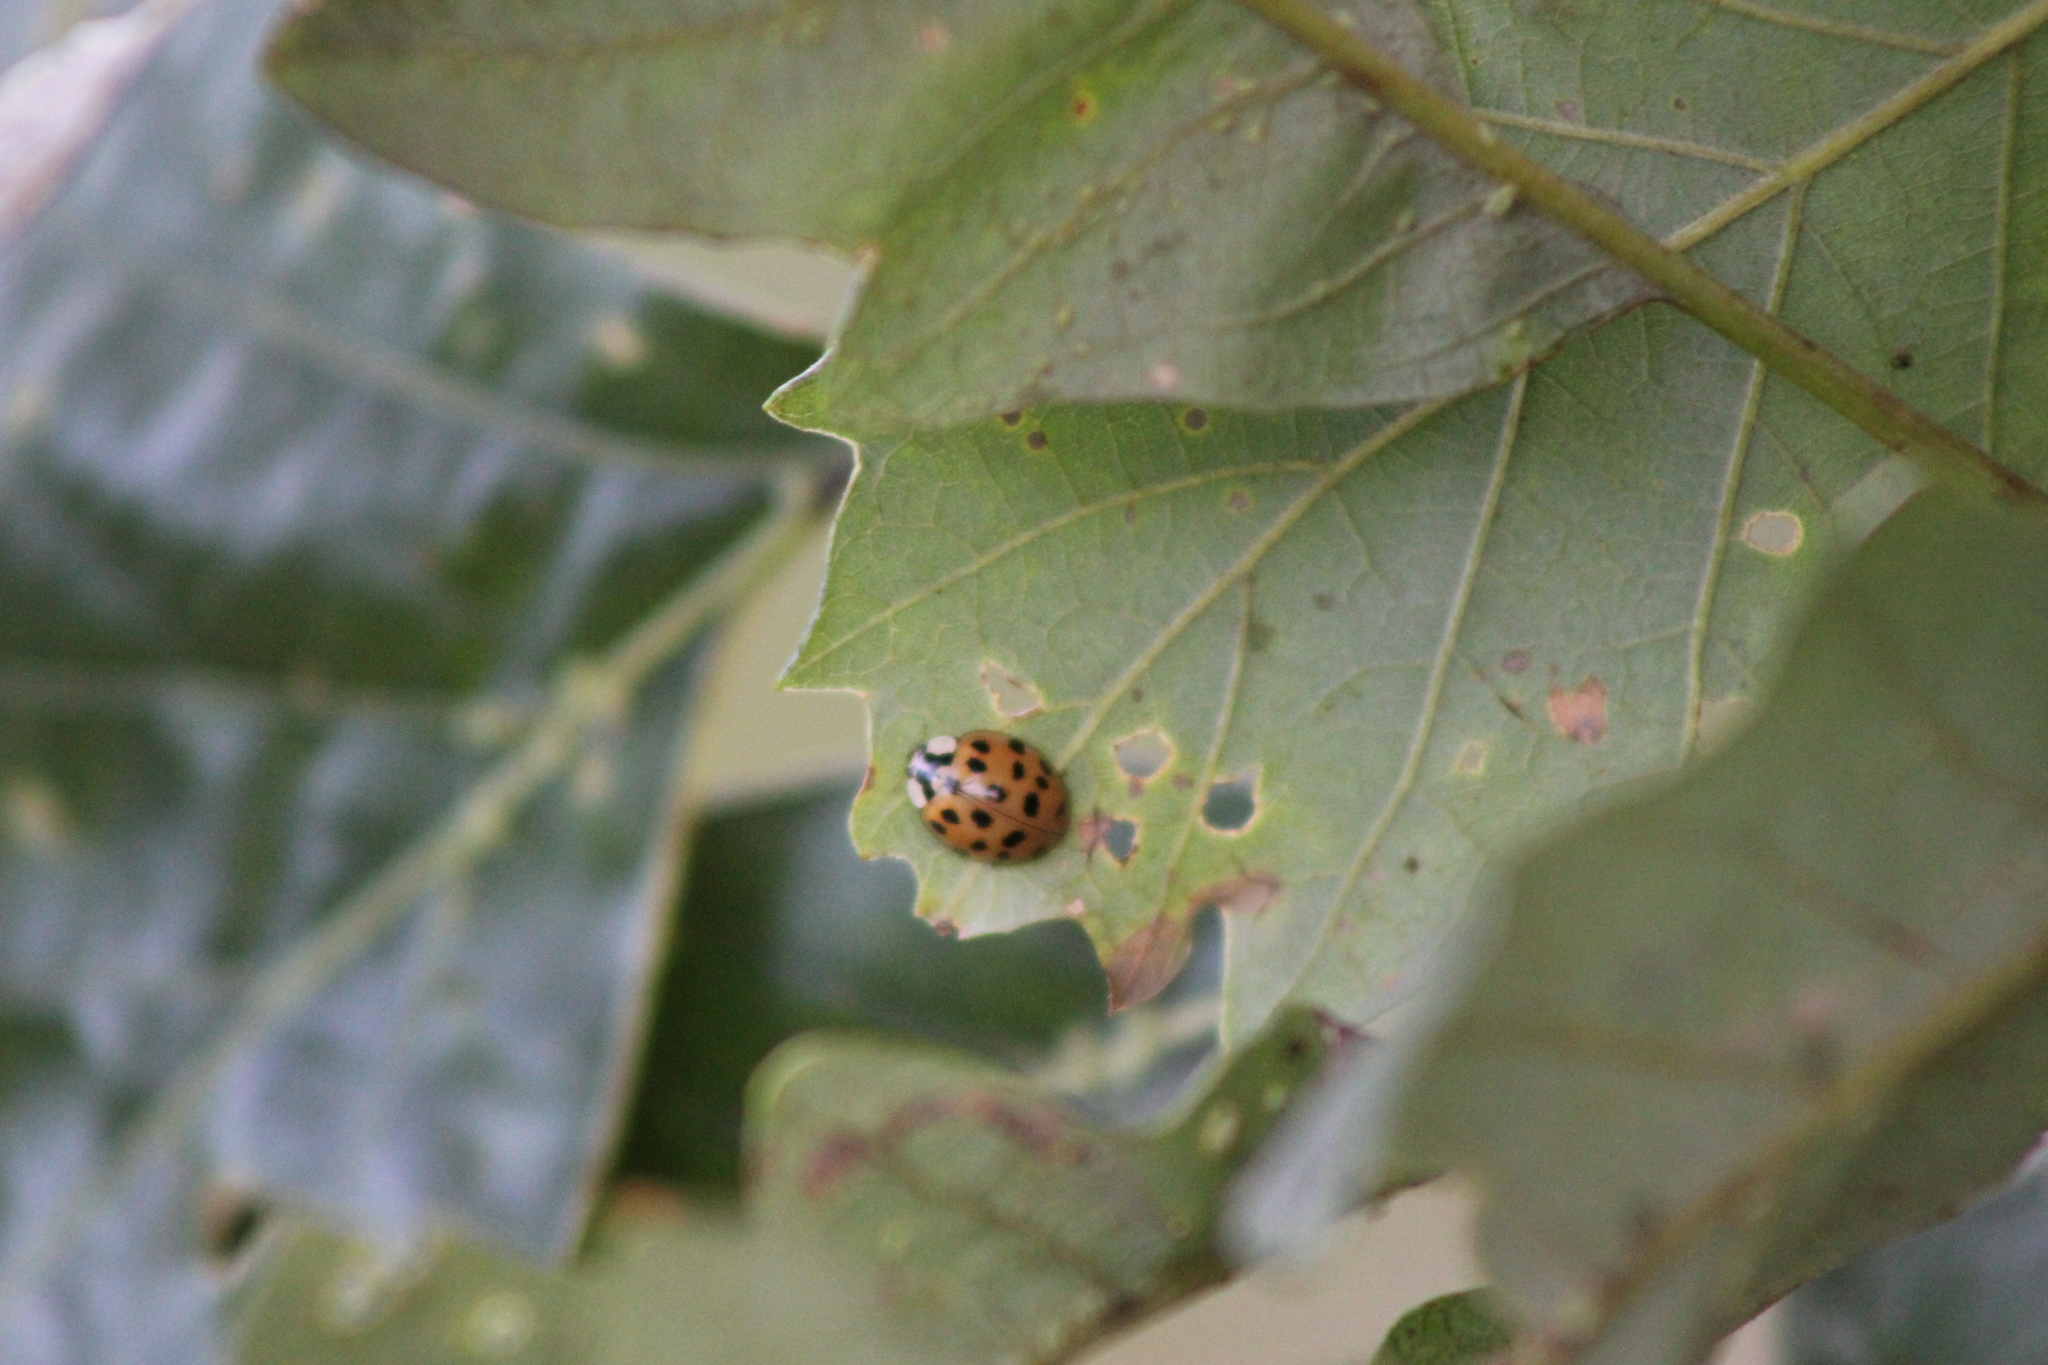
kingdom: Animalia
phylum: Arthropoda
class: Insecta
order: Coleoptera
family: Coccinellidae
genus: Harmonia
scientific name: Harmonia axyridis
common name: Harlequin ladybird
